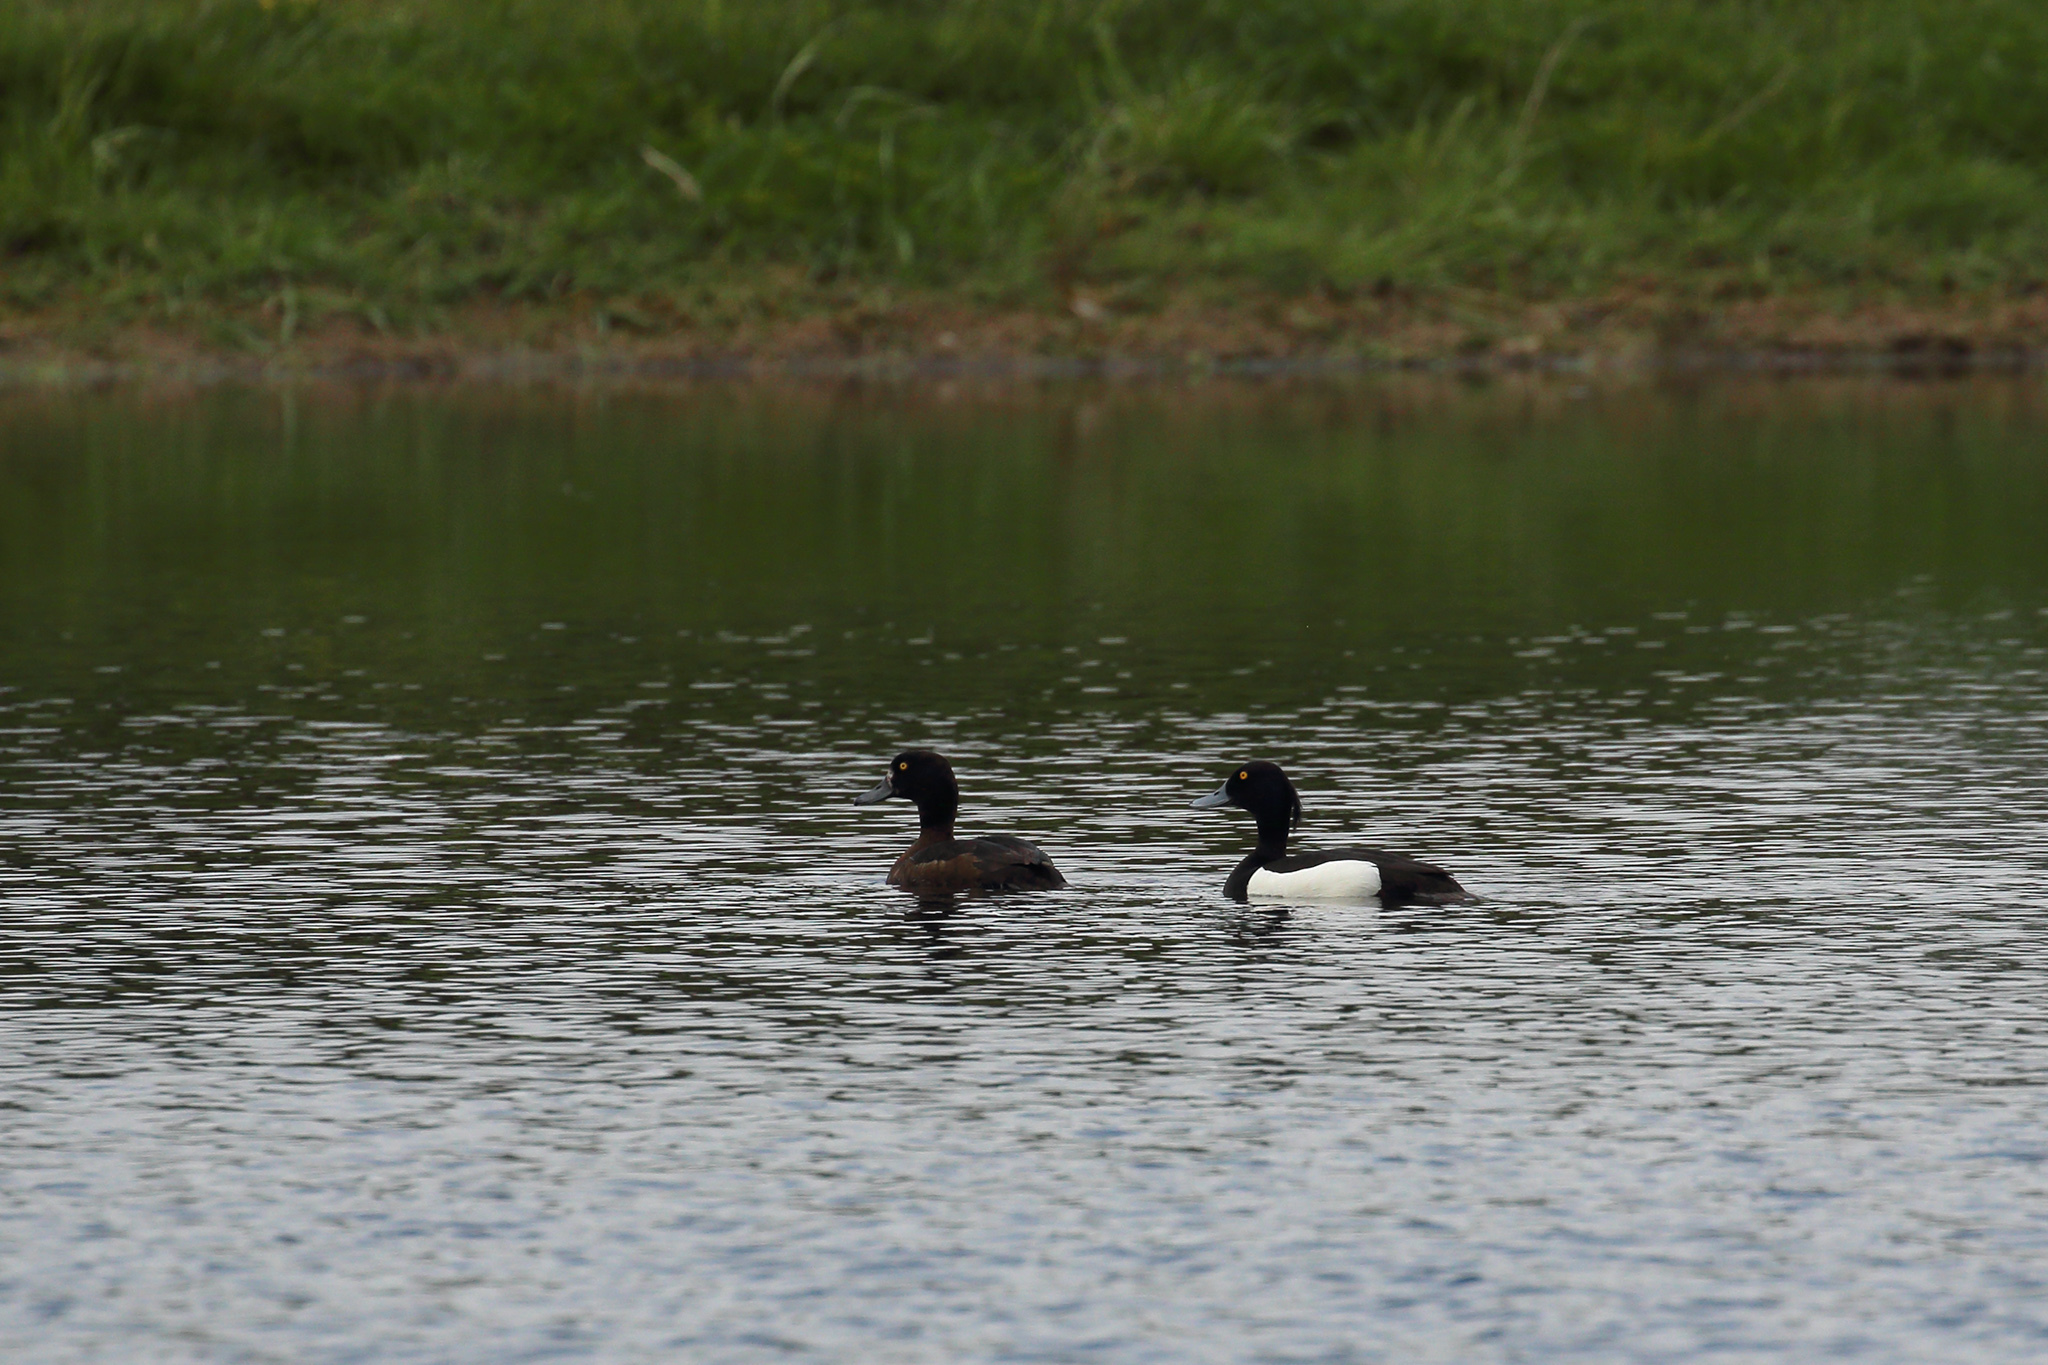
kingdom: Animalia
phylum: Chordata
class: Aves
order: Anseriformes
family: Anatidae
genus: Aythya
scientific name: Aythya fuligula
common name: Tufted duck
